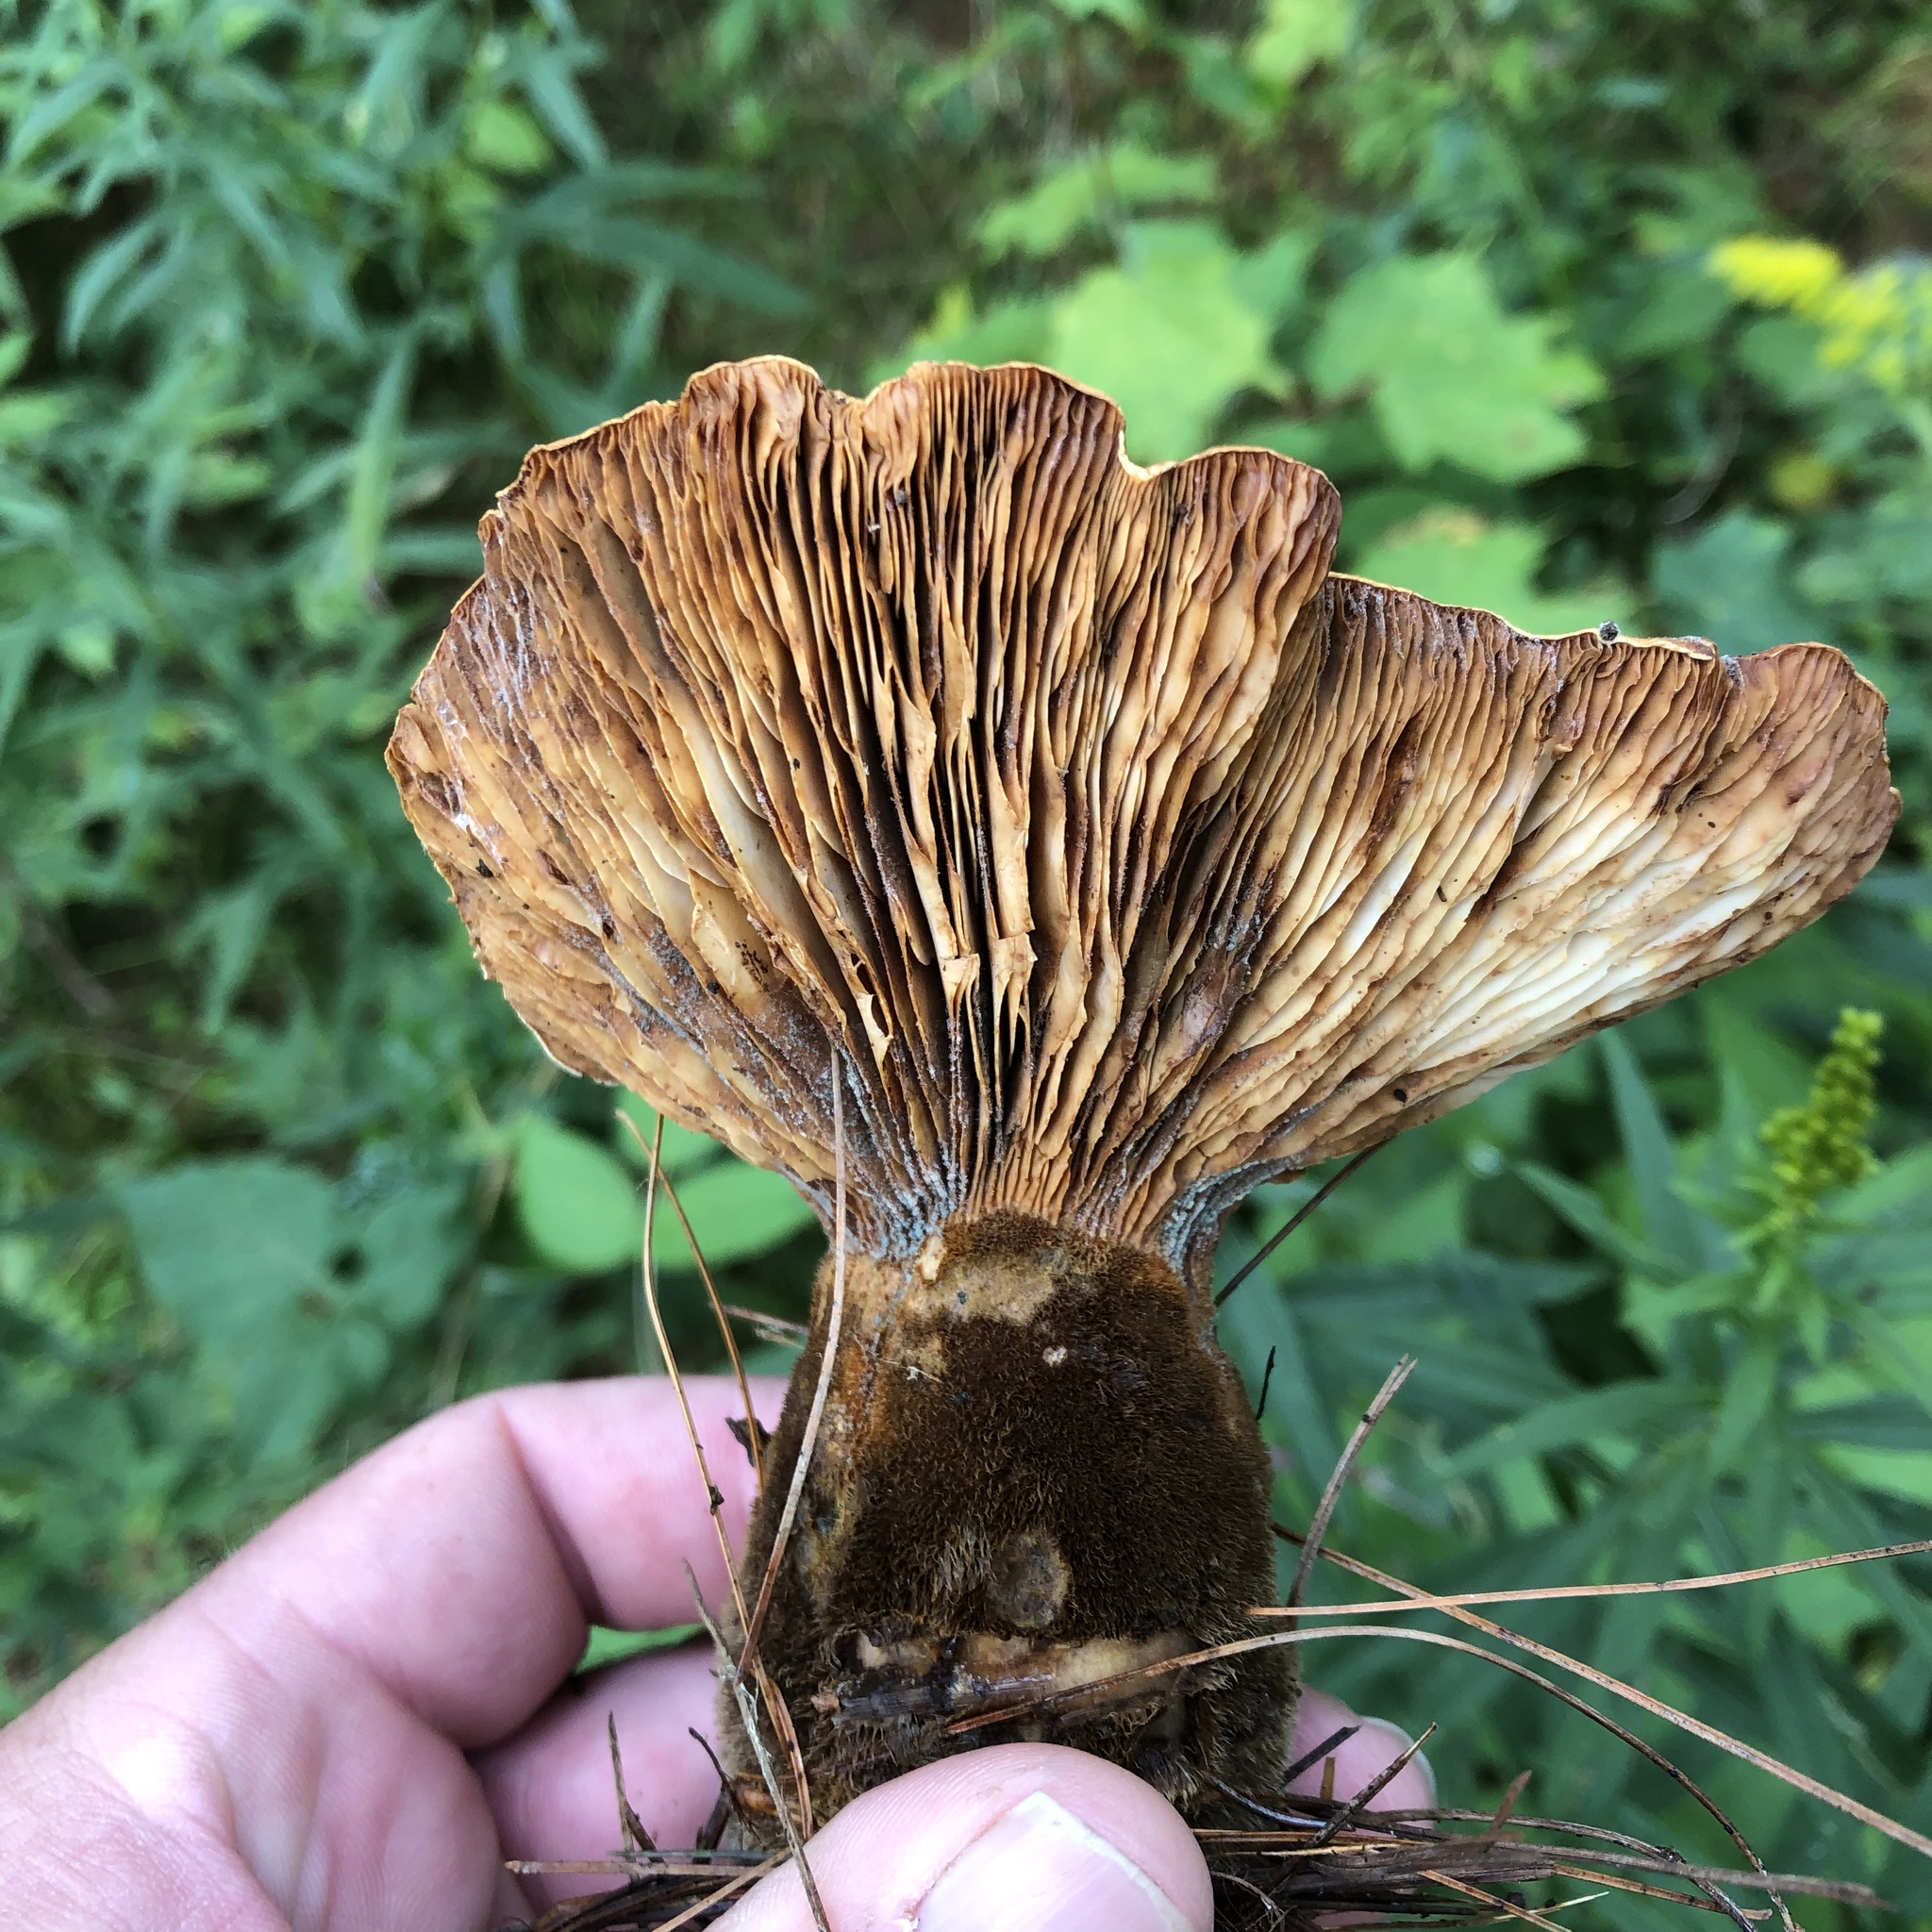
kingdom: Fungi
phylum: Basidiomycota
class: Agaricomycetes
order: Boletales
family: Tapinellaceae
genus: Tapinella
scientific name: Tapinella atrotomentosa
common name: Velvet rollrim
